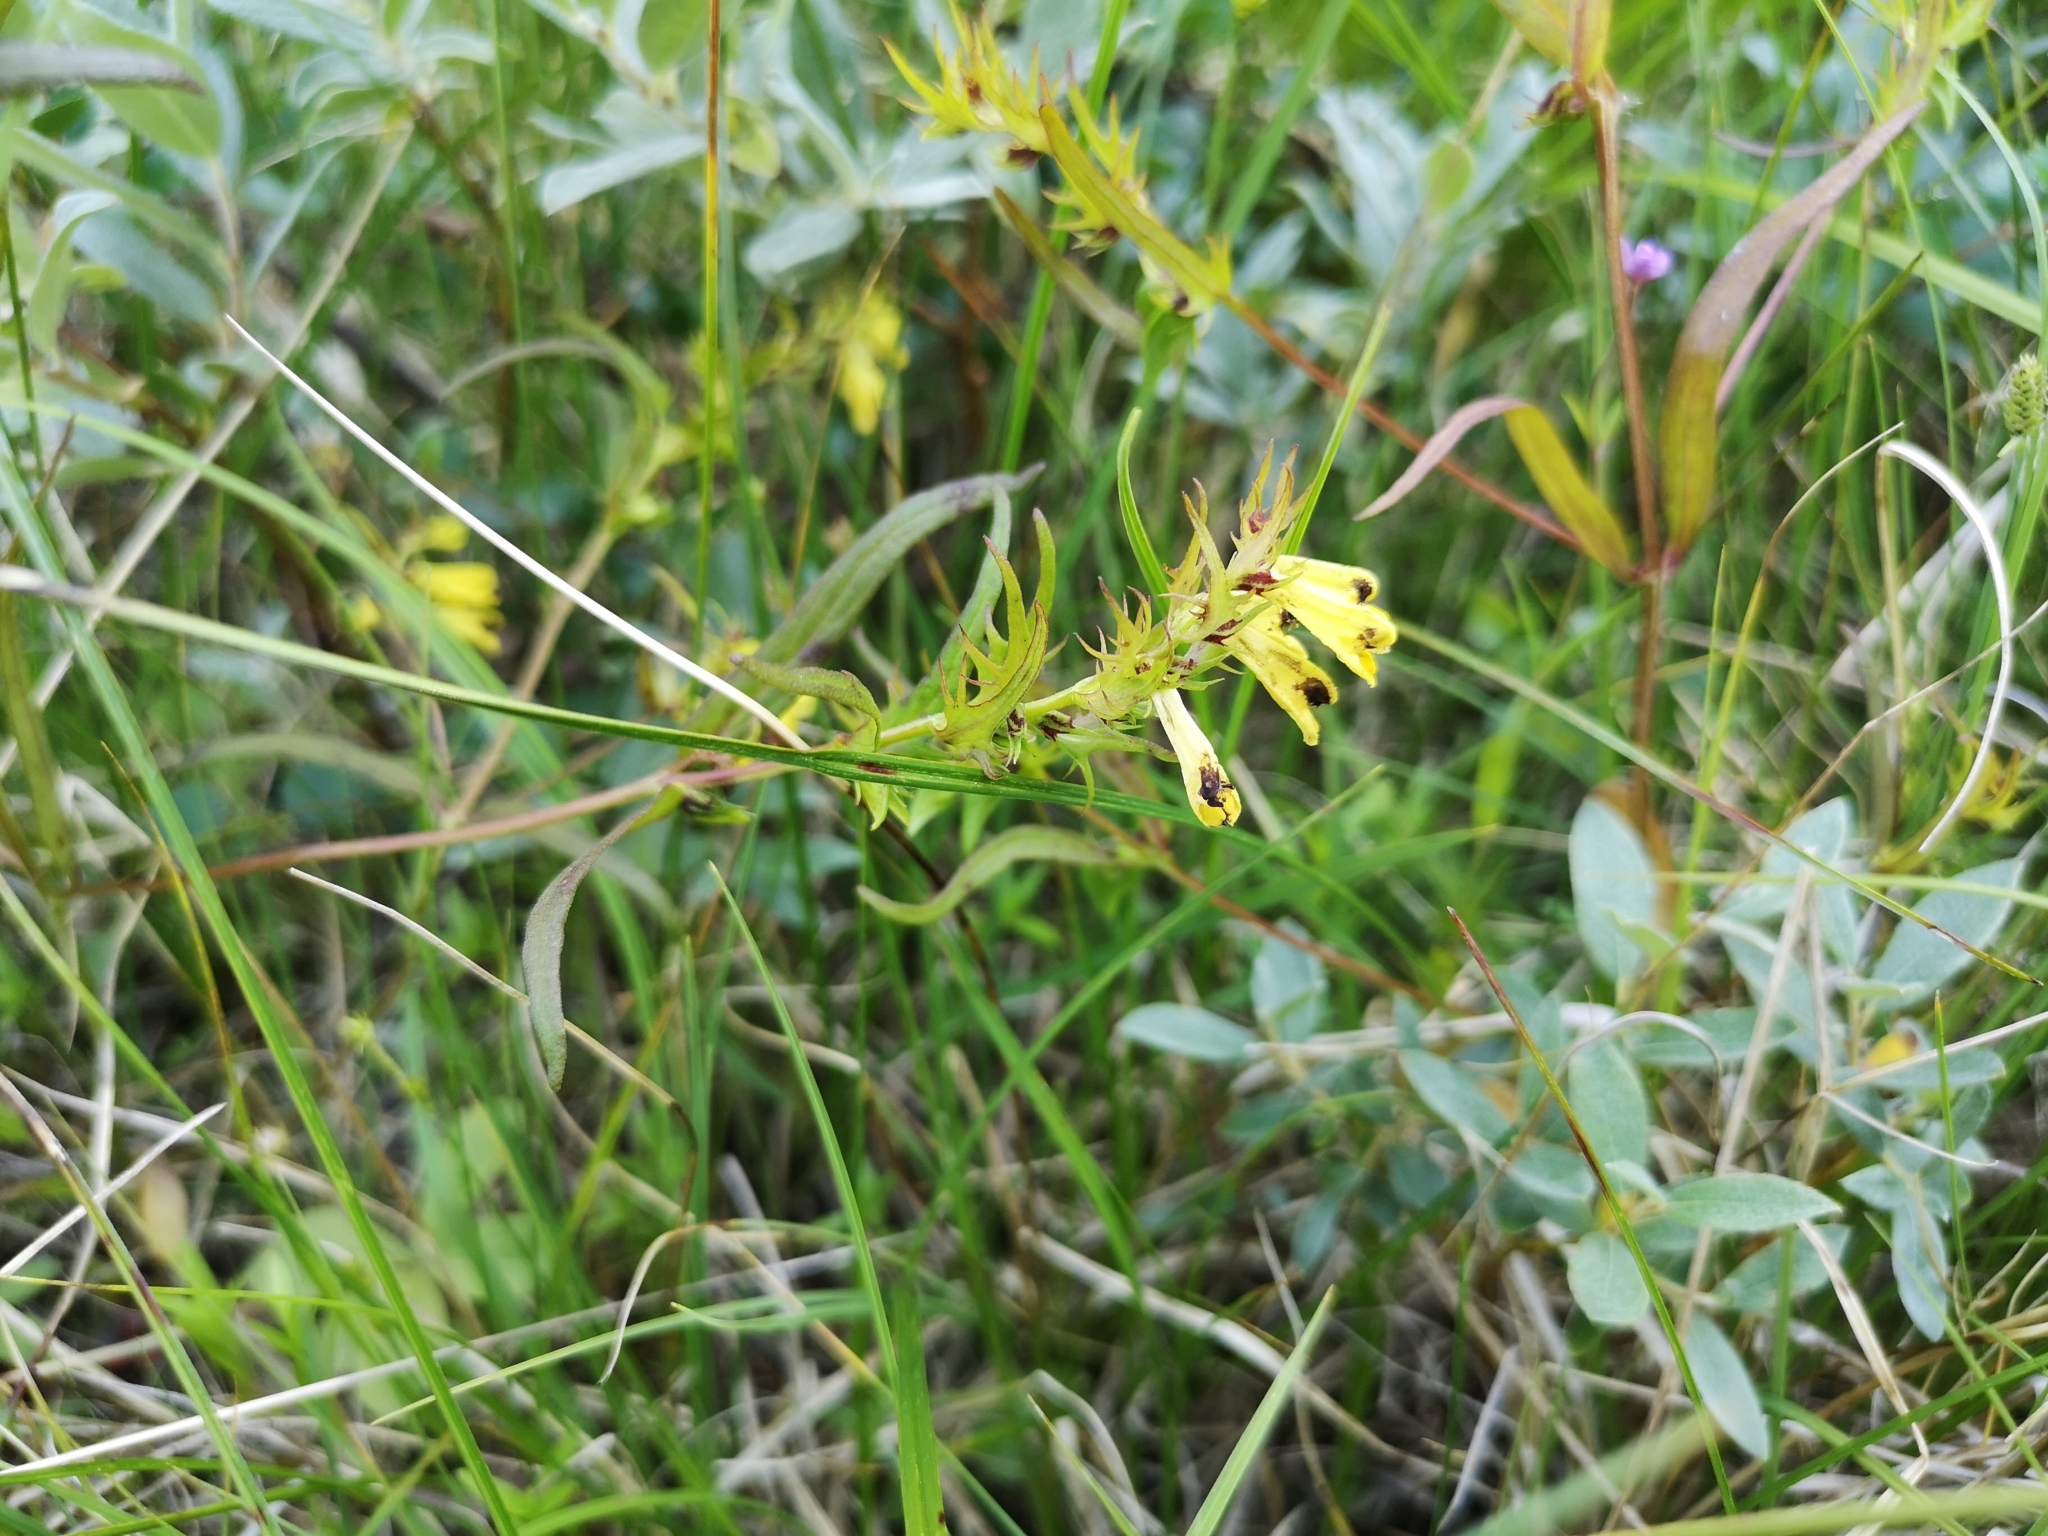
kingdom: Plantae
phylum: Tracheophyta
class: Magnoliopsida
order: Lamiales
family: Orobanchaceae
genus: Melampyrum
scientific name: Melampyrum pratense
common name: Common cow-wheat
